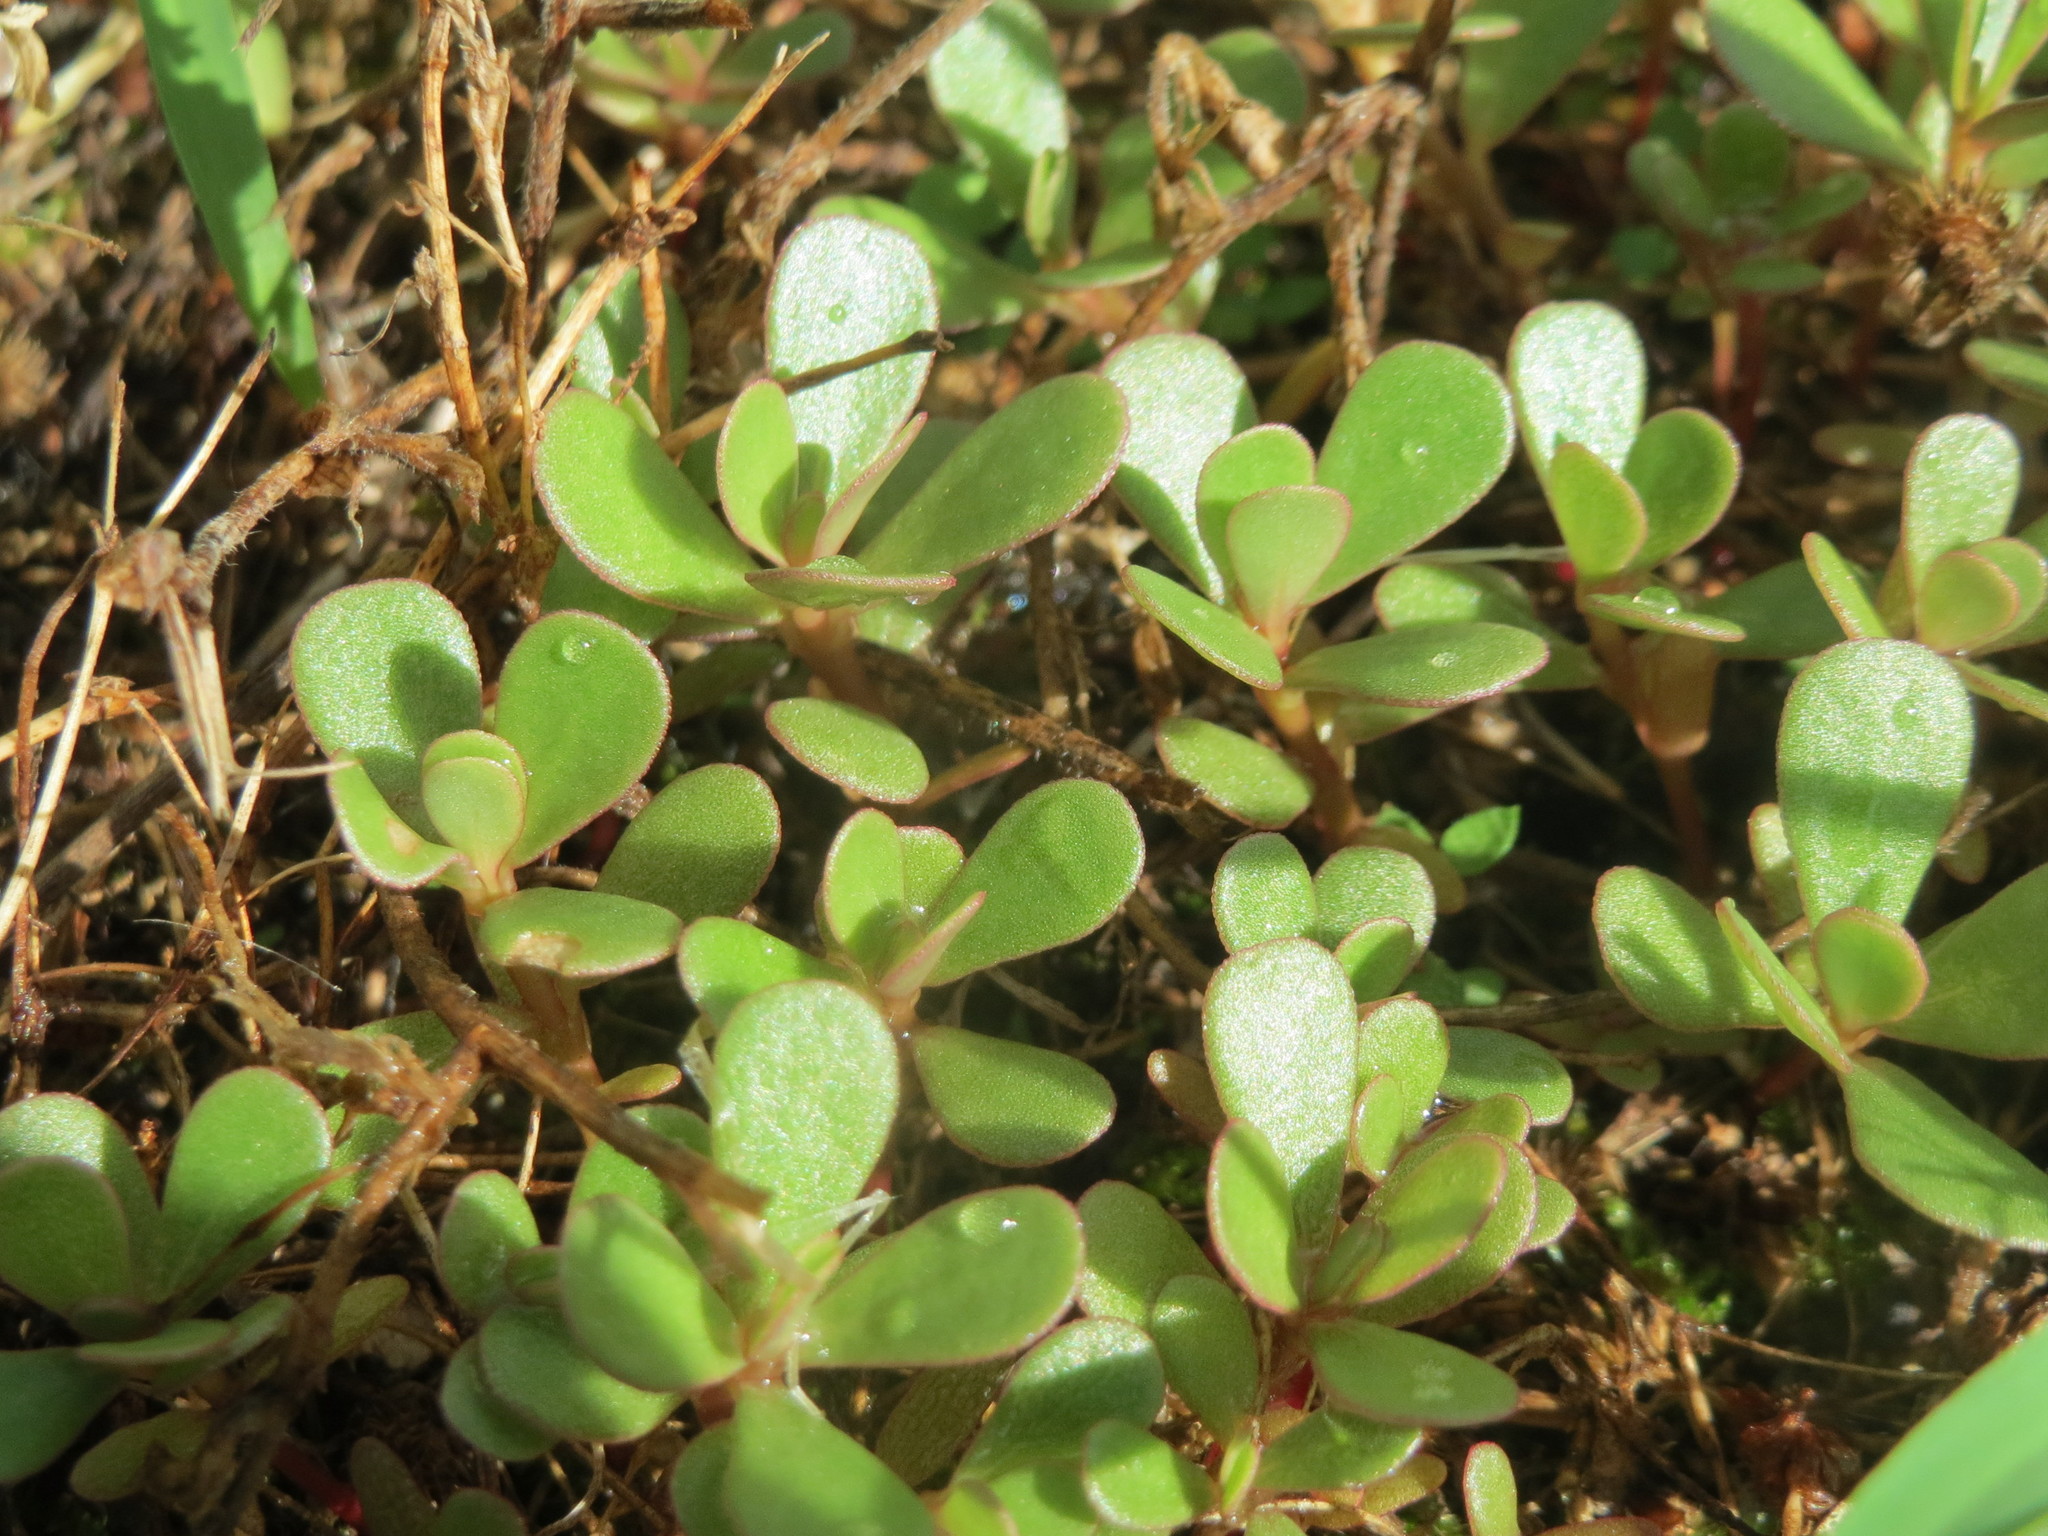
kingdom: Plantae
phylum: Tracheophyta
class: Magnoliopsida
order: Caryophyllales
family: Portulacaceae
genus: Portulaca
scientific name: Portulaca oleracea
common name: Common purslane
